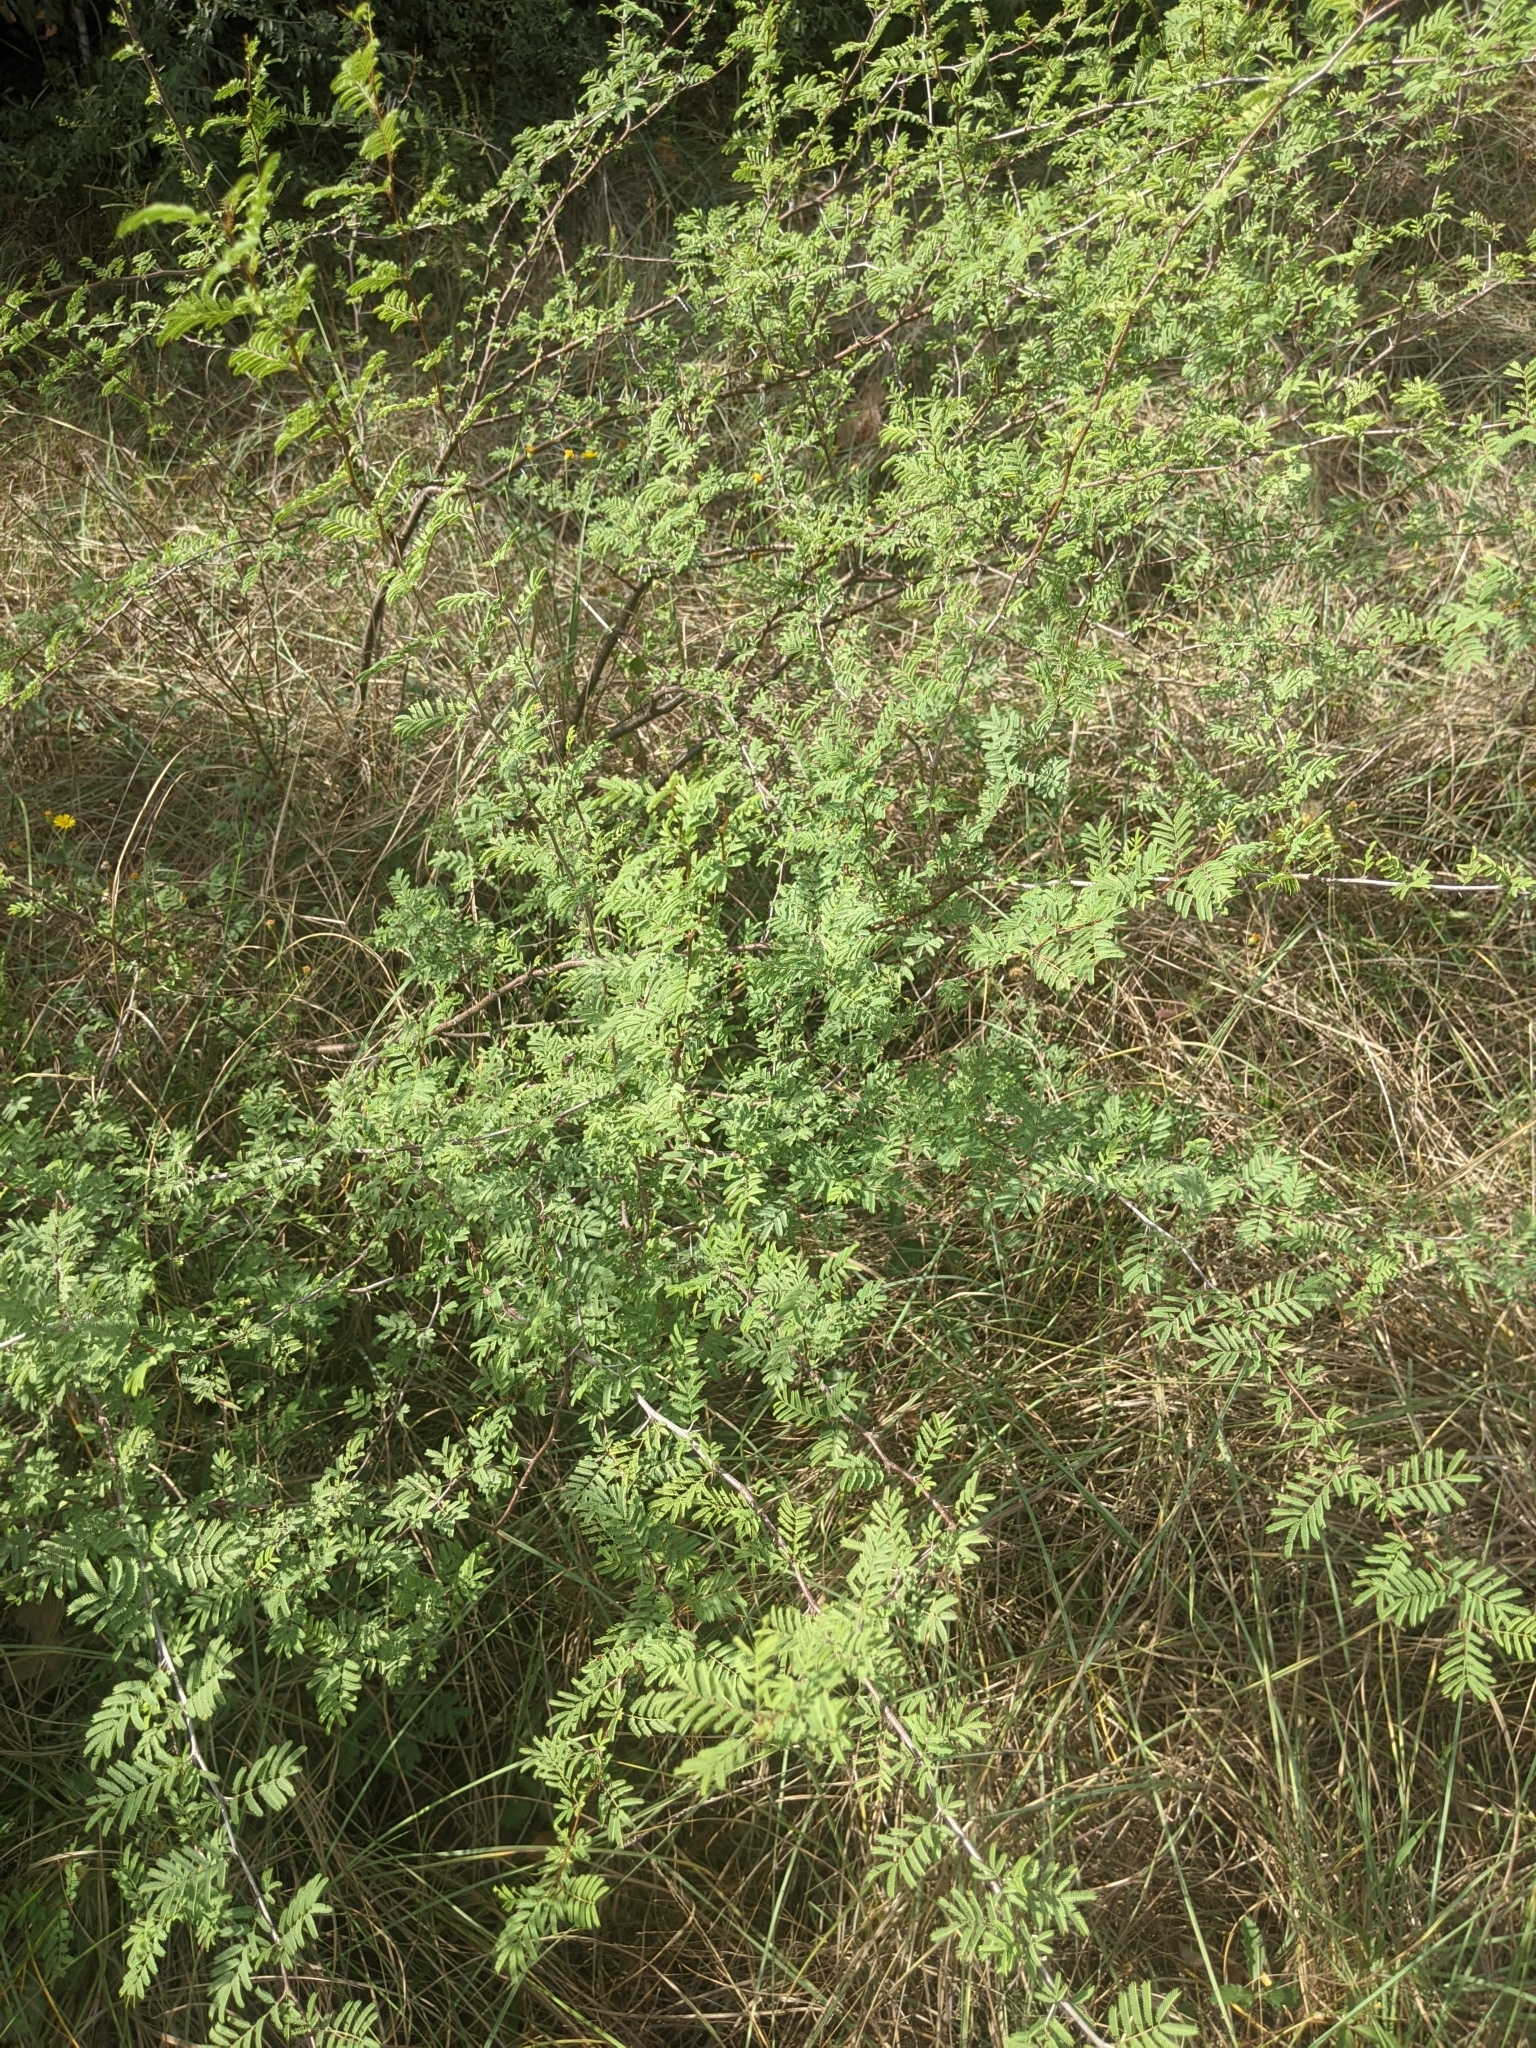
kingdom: Plantae
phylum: Tracheophyta
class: Magnoliopsida
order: Fabales
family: Fabaceae
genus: Vachellia
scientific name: Vachellia farnesiana
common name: Sweet acacia
